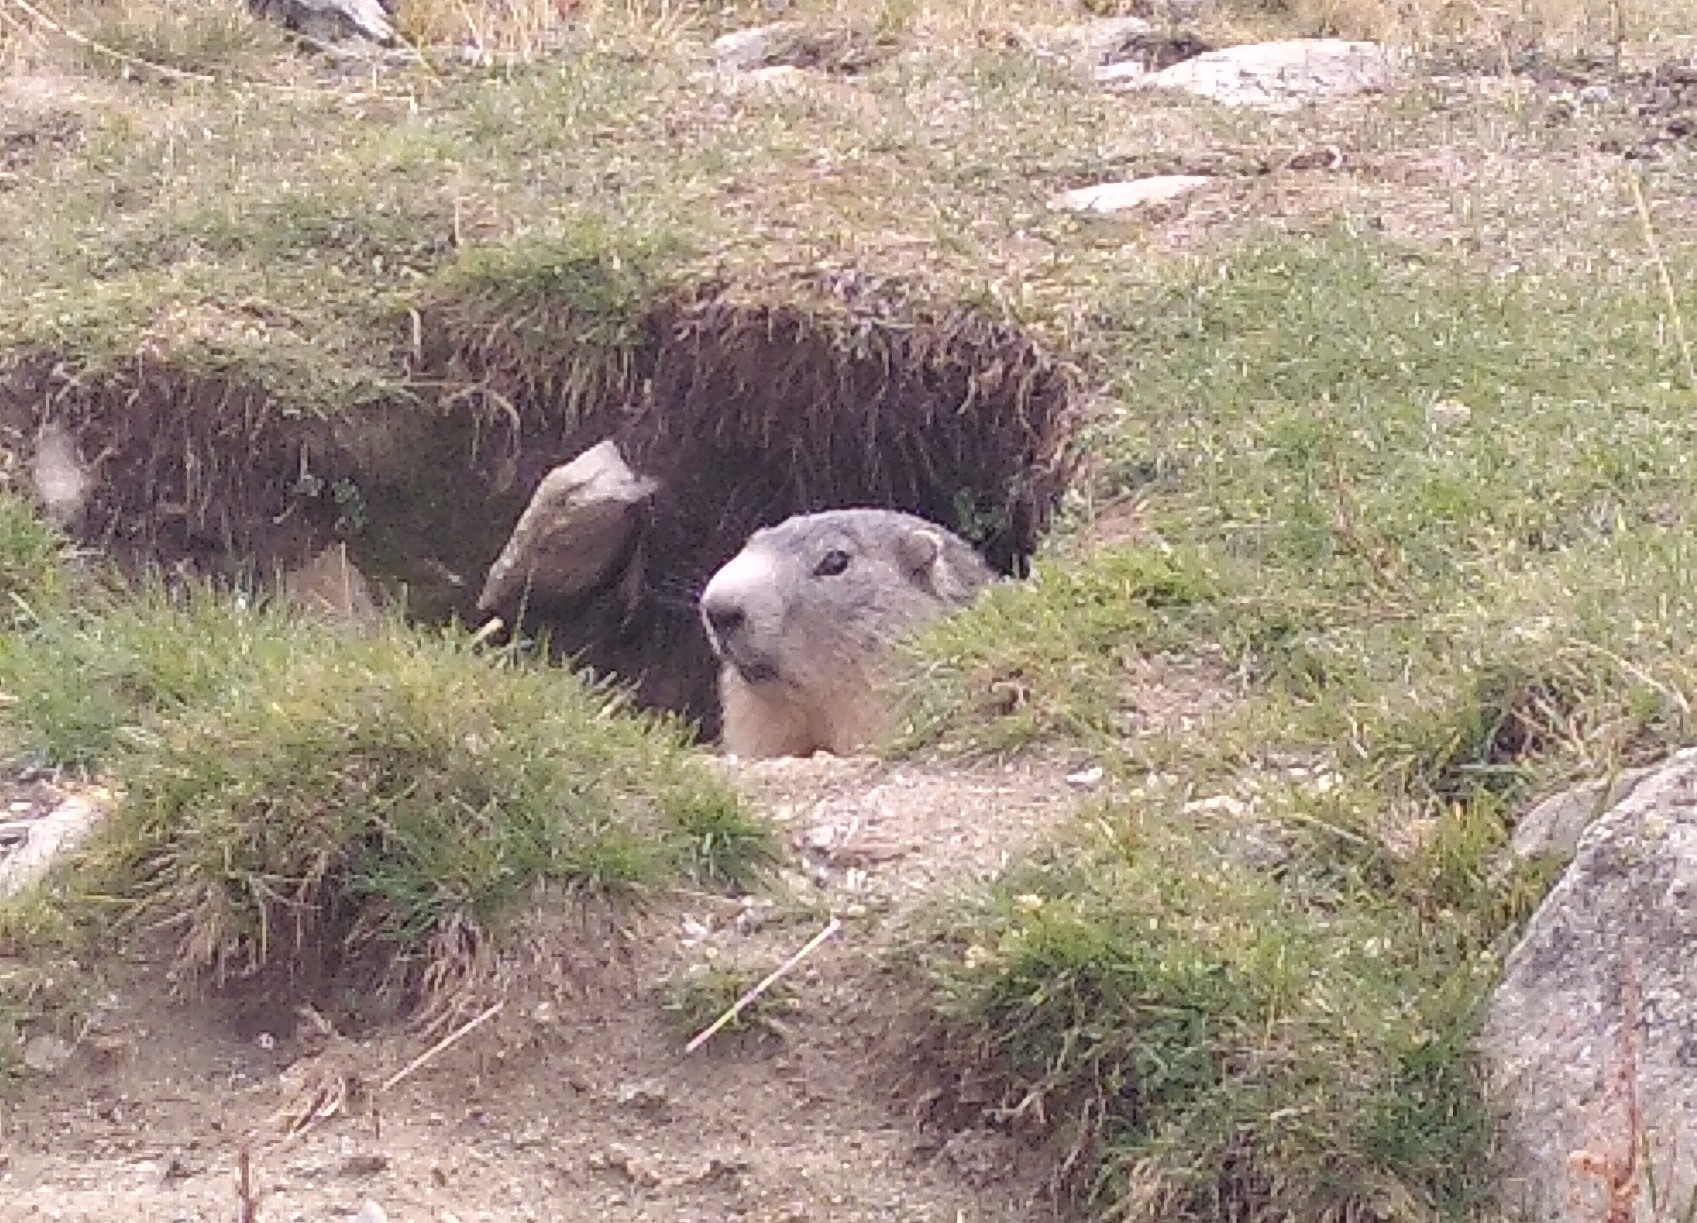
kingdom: Animalia
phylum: Chordata
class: Mammalia
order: Rodentia
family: Sciuridae
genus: Marmota
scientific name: Marmota marmota
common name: Alpine marmot
